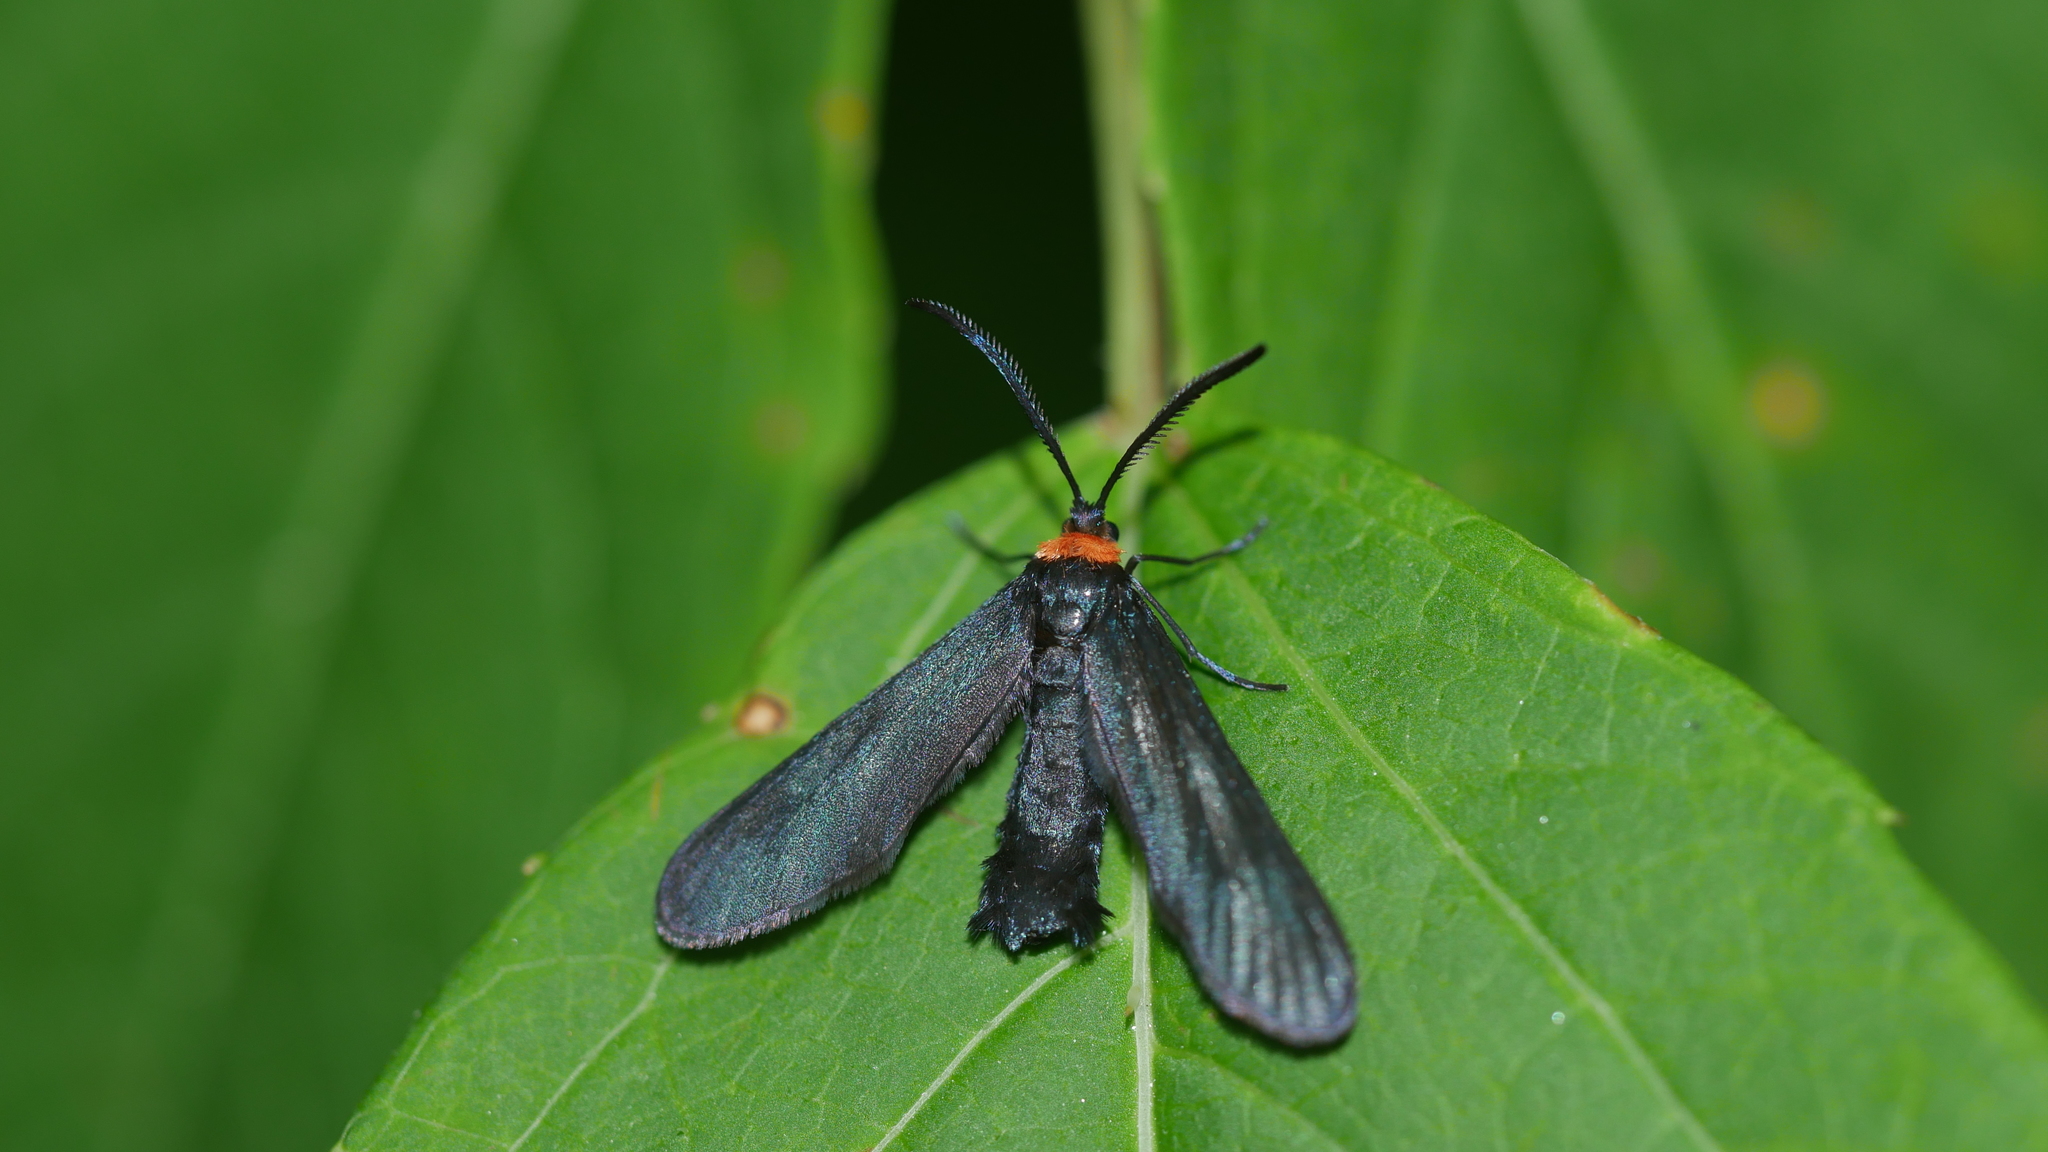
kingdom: Animalia
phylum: Arthropoda
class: Insecta
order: Lepidoptera
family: Zygaenidae
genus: Harrisina
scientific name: Harrisina americana
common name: Grapeleaf skeletonizer moth
